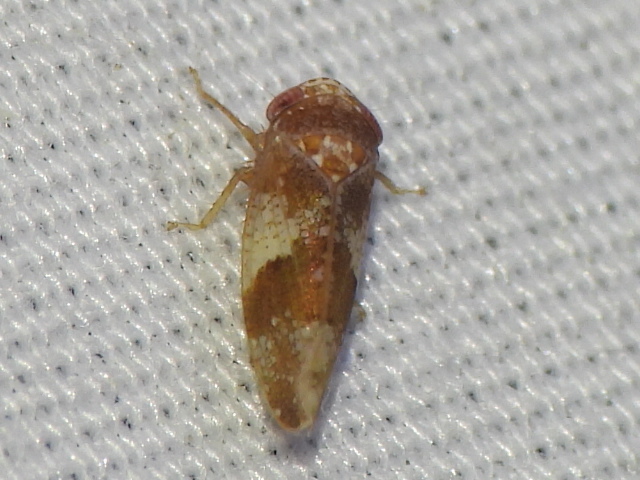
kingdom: Animalia
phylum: Arthropoda
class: Insecta
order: Hemiptera
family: Cicadellidae
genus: Norvellina
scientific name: Norvellina helenae
